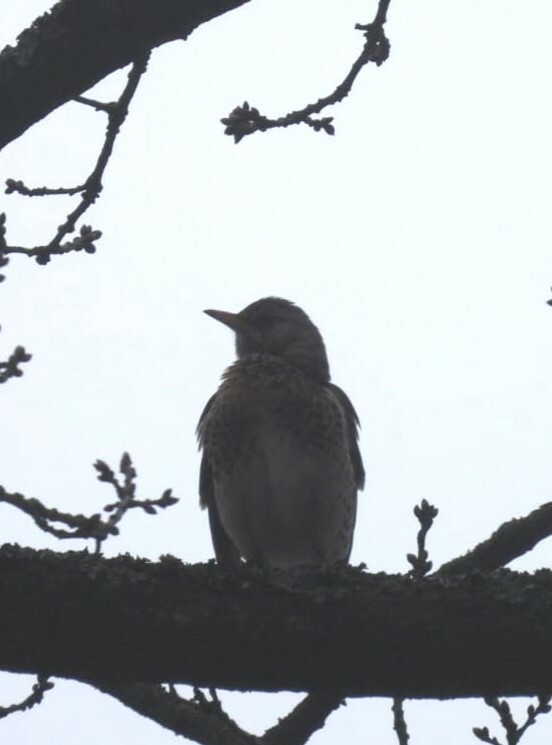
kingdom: Animalia
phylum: Chordata
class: Aves
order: Passeriformes
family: Turdidae
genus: Turdus
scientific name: Turdus pilaris
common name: Fieldfare
